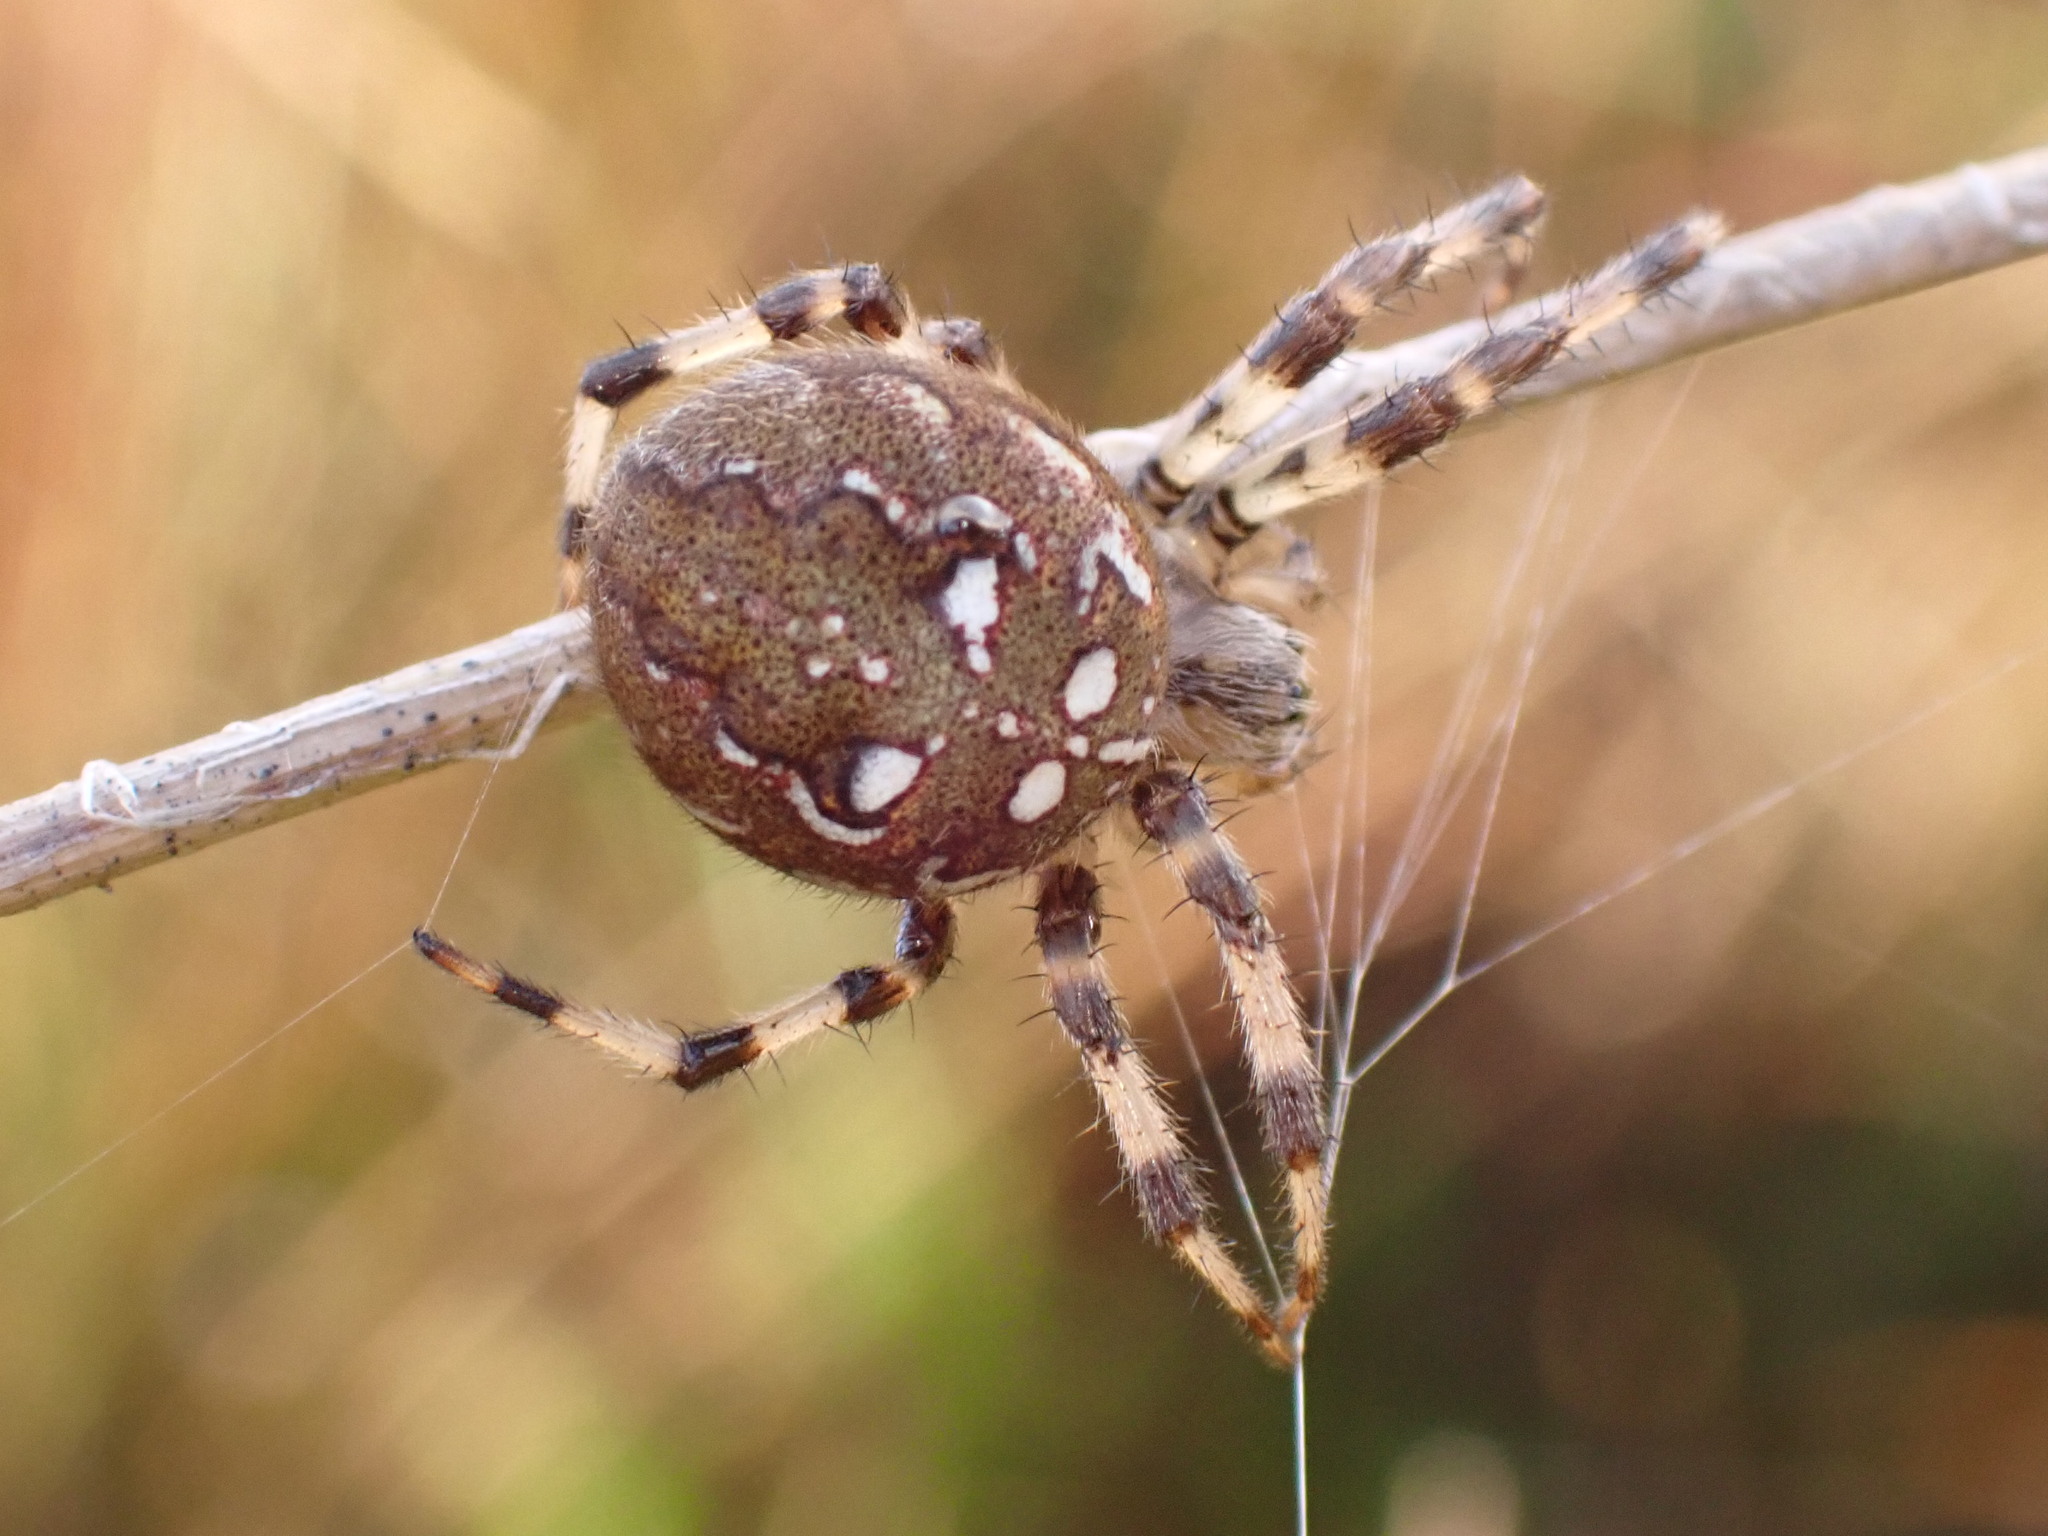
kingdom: Animalia
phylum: Arthropoda
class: Arachnida
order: Araneae
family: Araneidae
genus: Araneus
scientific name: Araneus quadratus
